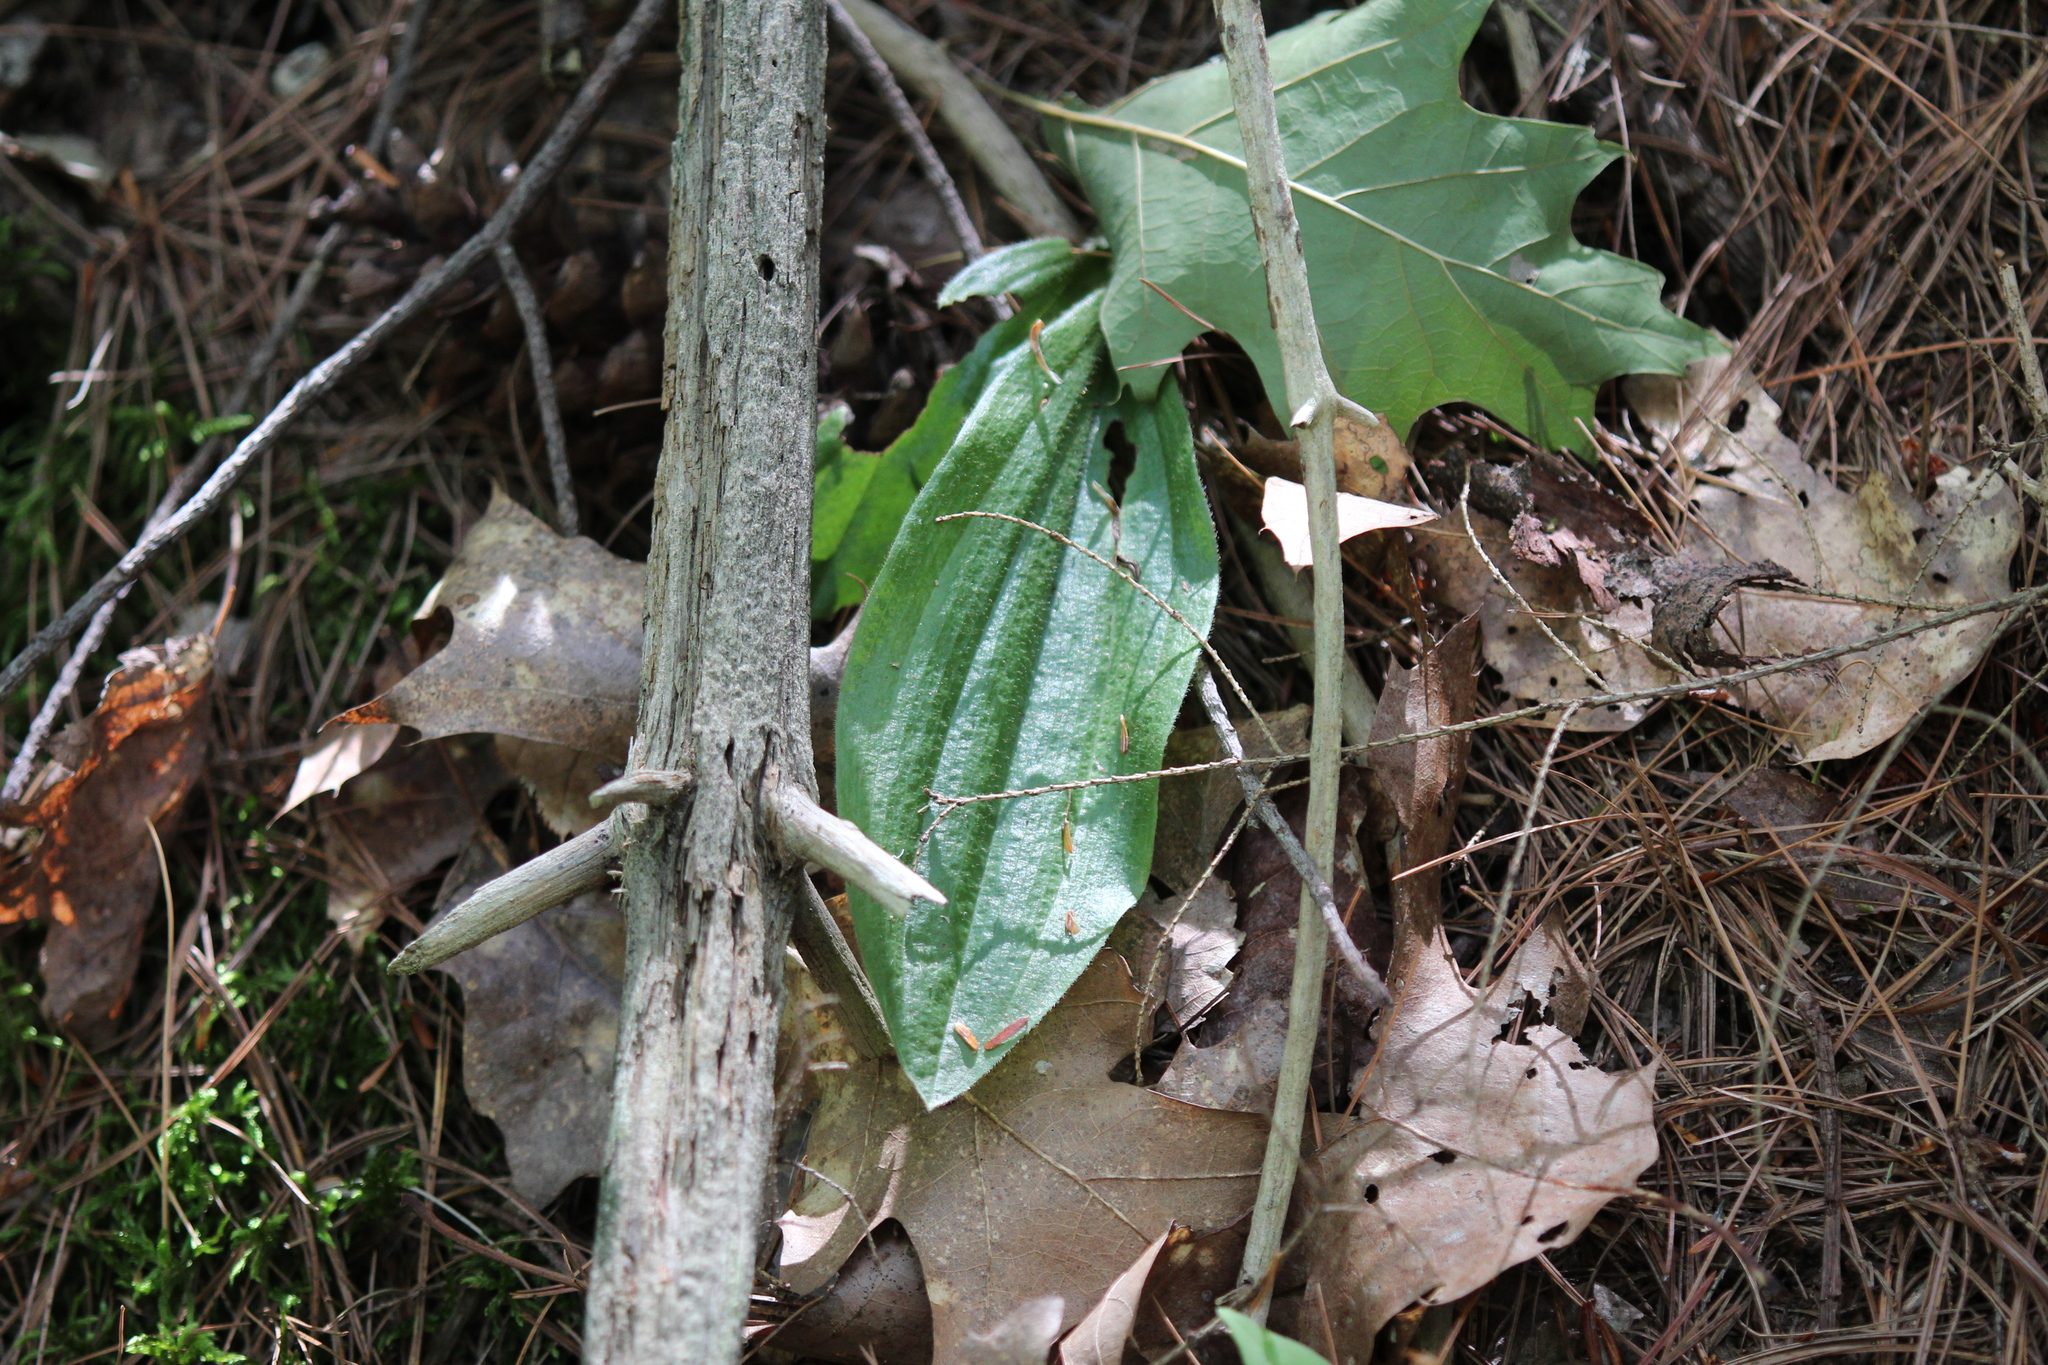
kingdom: Plantae
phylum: Tracheophyta
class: Liliopsida
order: Asparagales
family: Orchidaceae
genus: Cypripedium
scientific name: Cypripedium acaule
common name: Pink lady's-slipper
